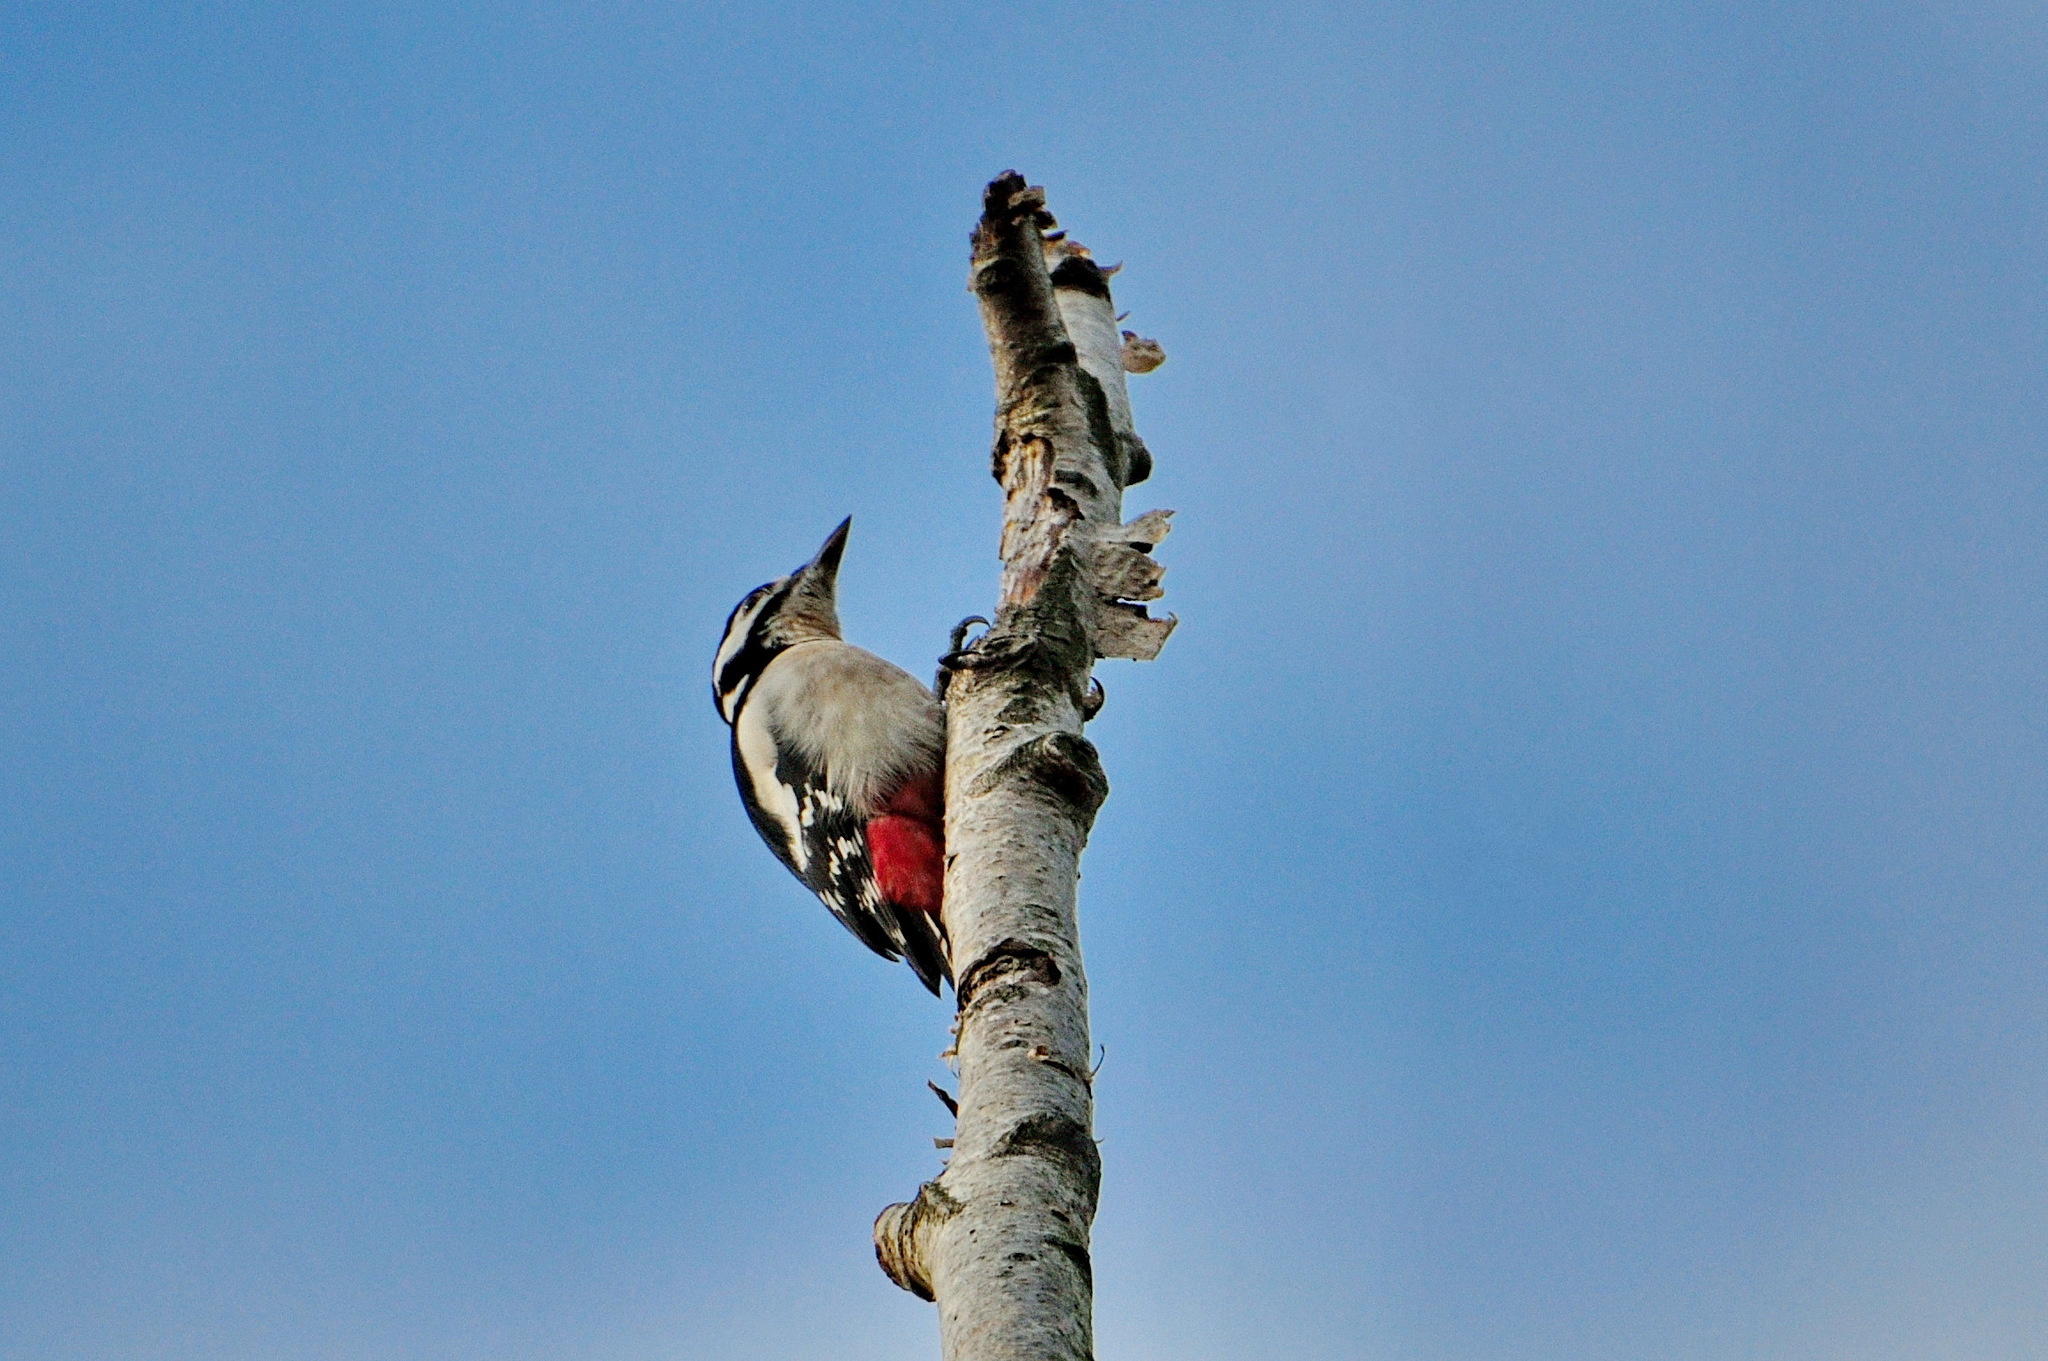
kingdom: Animalia
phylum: Chordata
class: Aves
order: Piciformes
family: Picidae
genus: Dendrocopos
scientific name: Dendrocopos major
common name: Great spotted woodpecker
